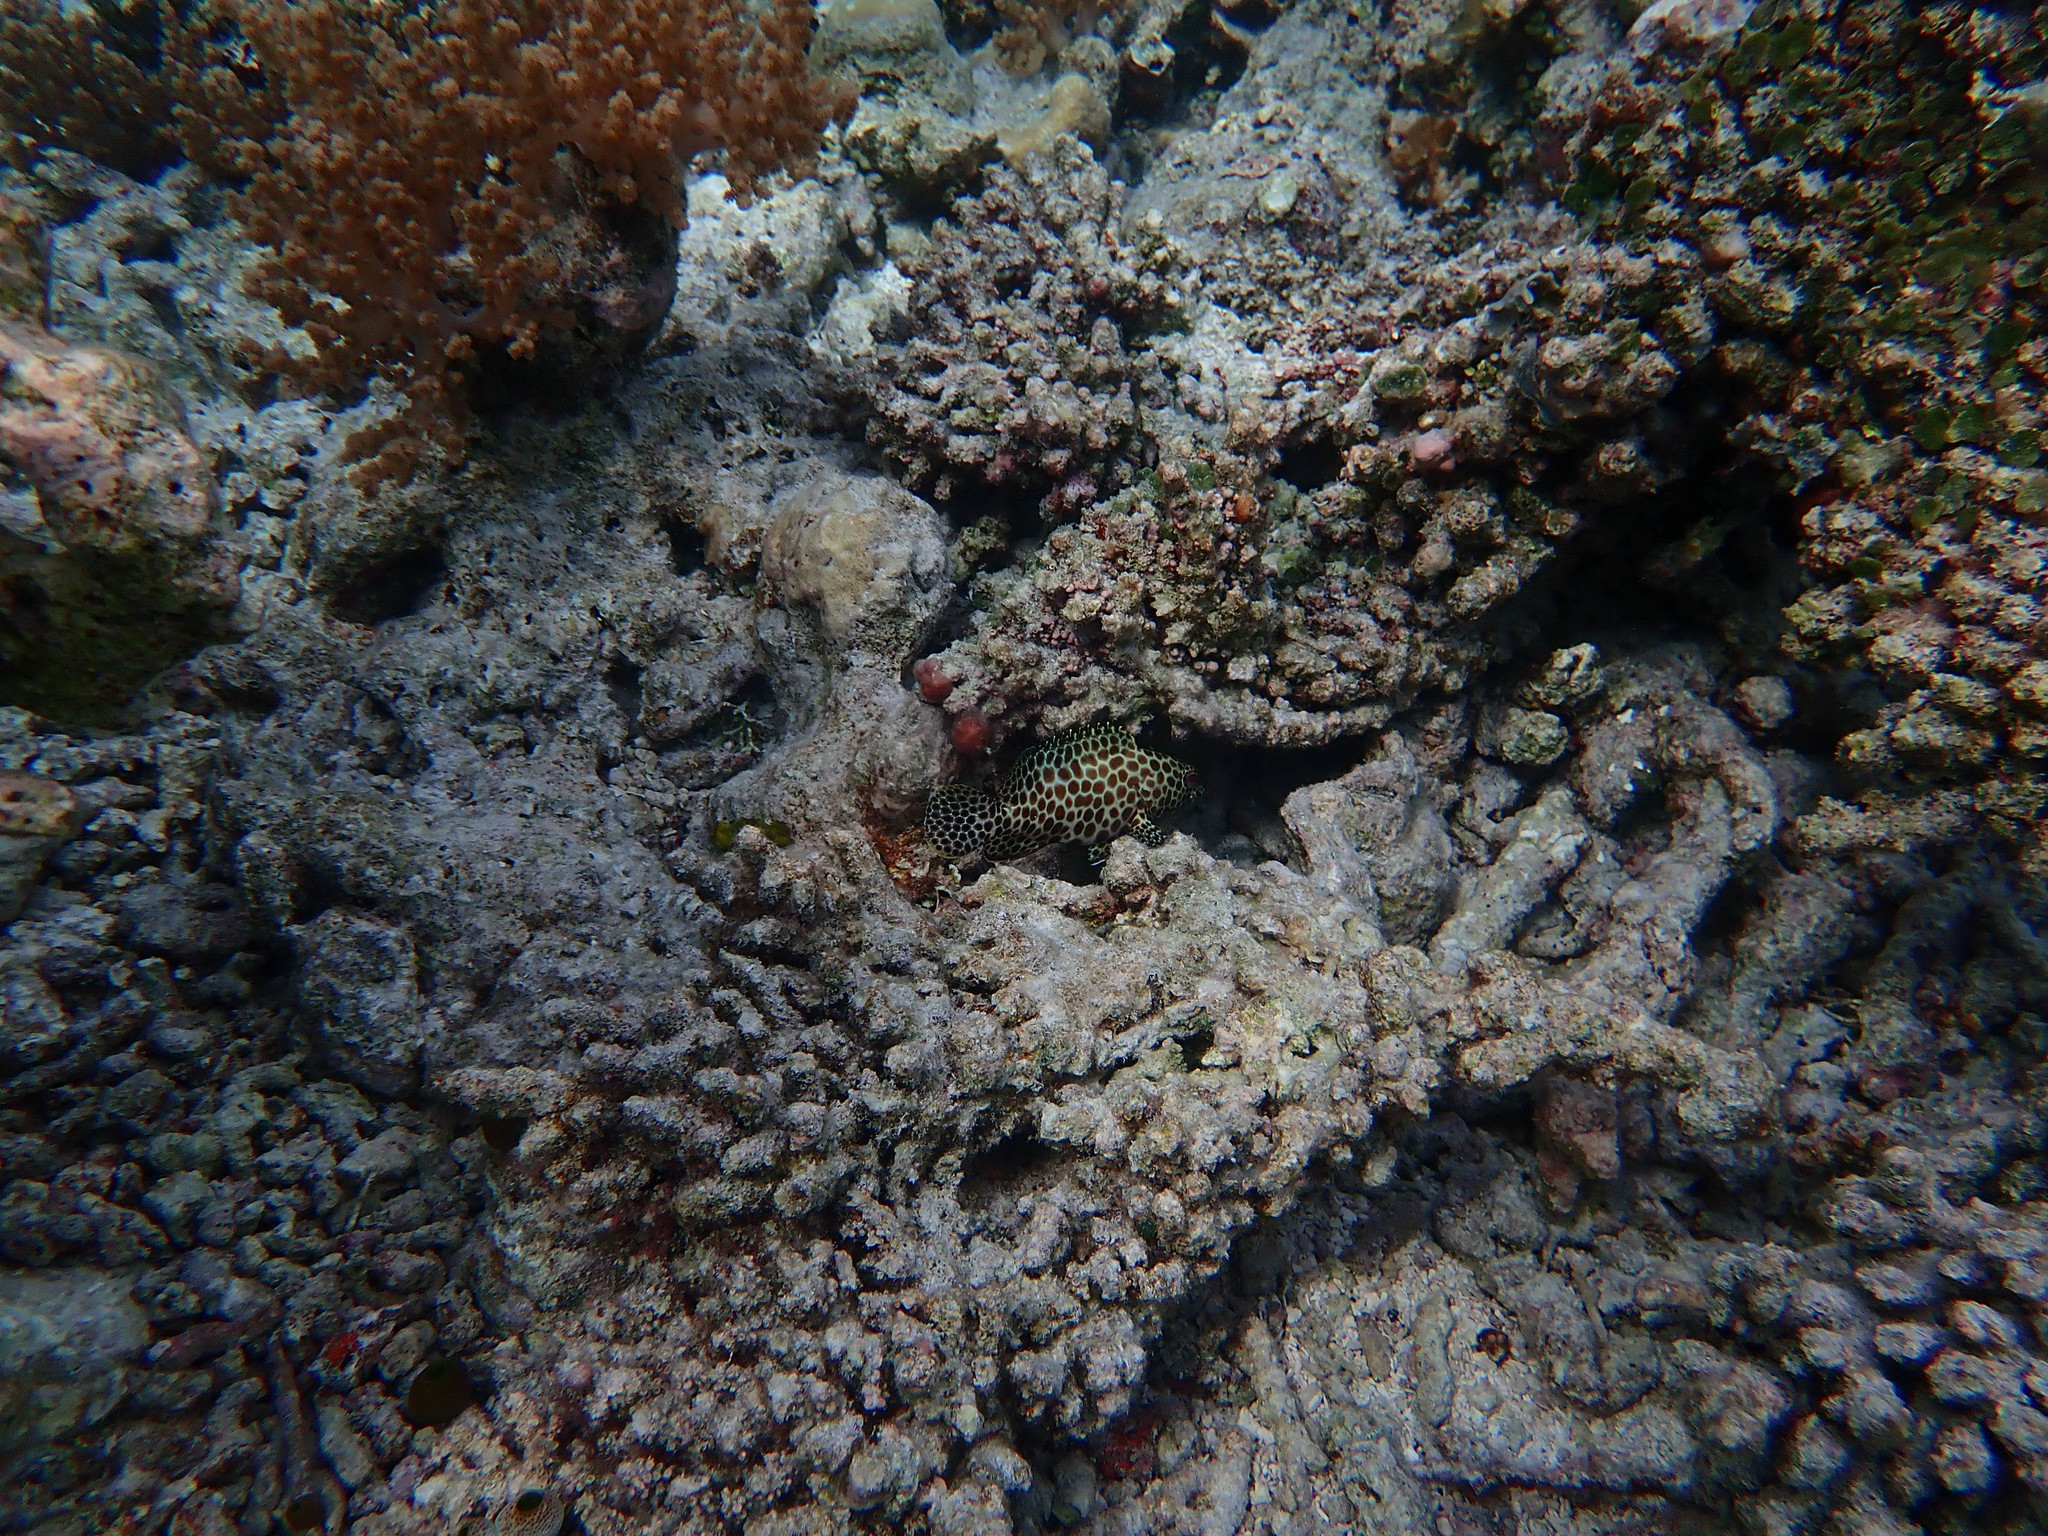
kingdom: Animalia
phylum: Chordata
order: Perciformes
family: Serranidae
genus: Epinephelus
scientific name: Epinephelus merra
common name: Honeycomb grouper
